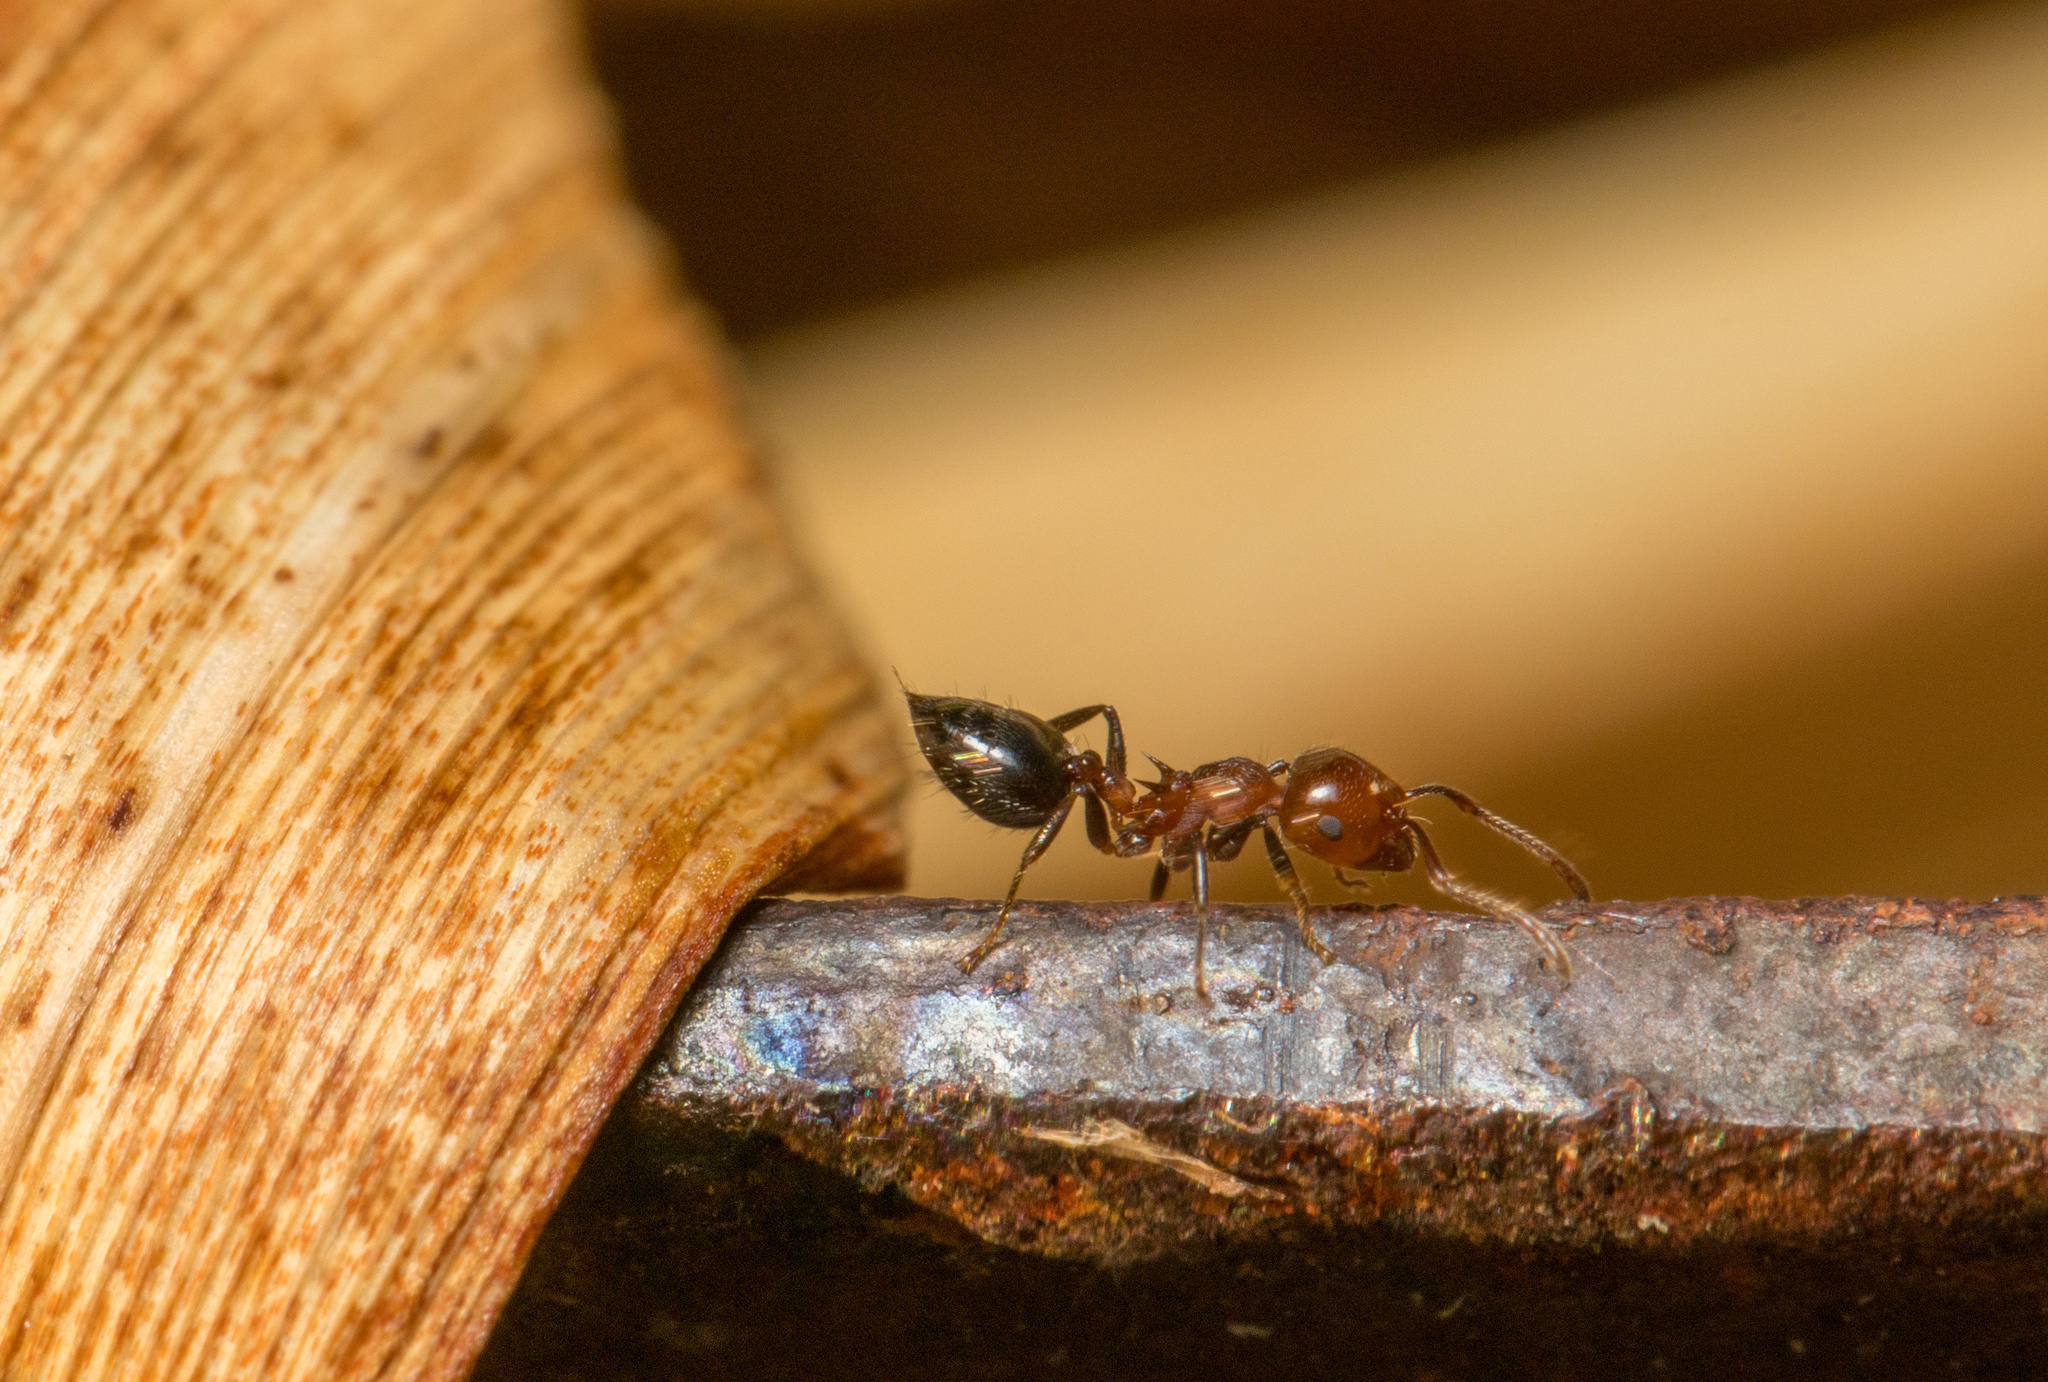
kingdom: Animalia
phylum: Arthropoda
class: Insecta
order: Hymenoptera
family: Formicidae
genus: Crematogaster
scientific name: Crematogaster laeviuscula
